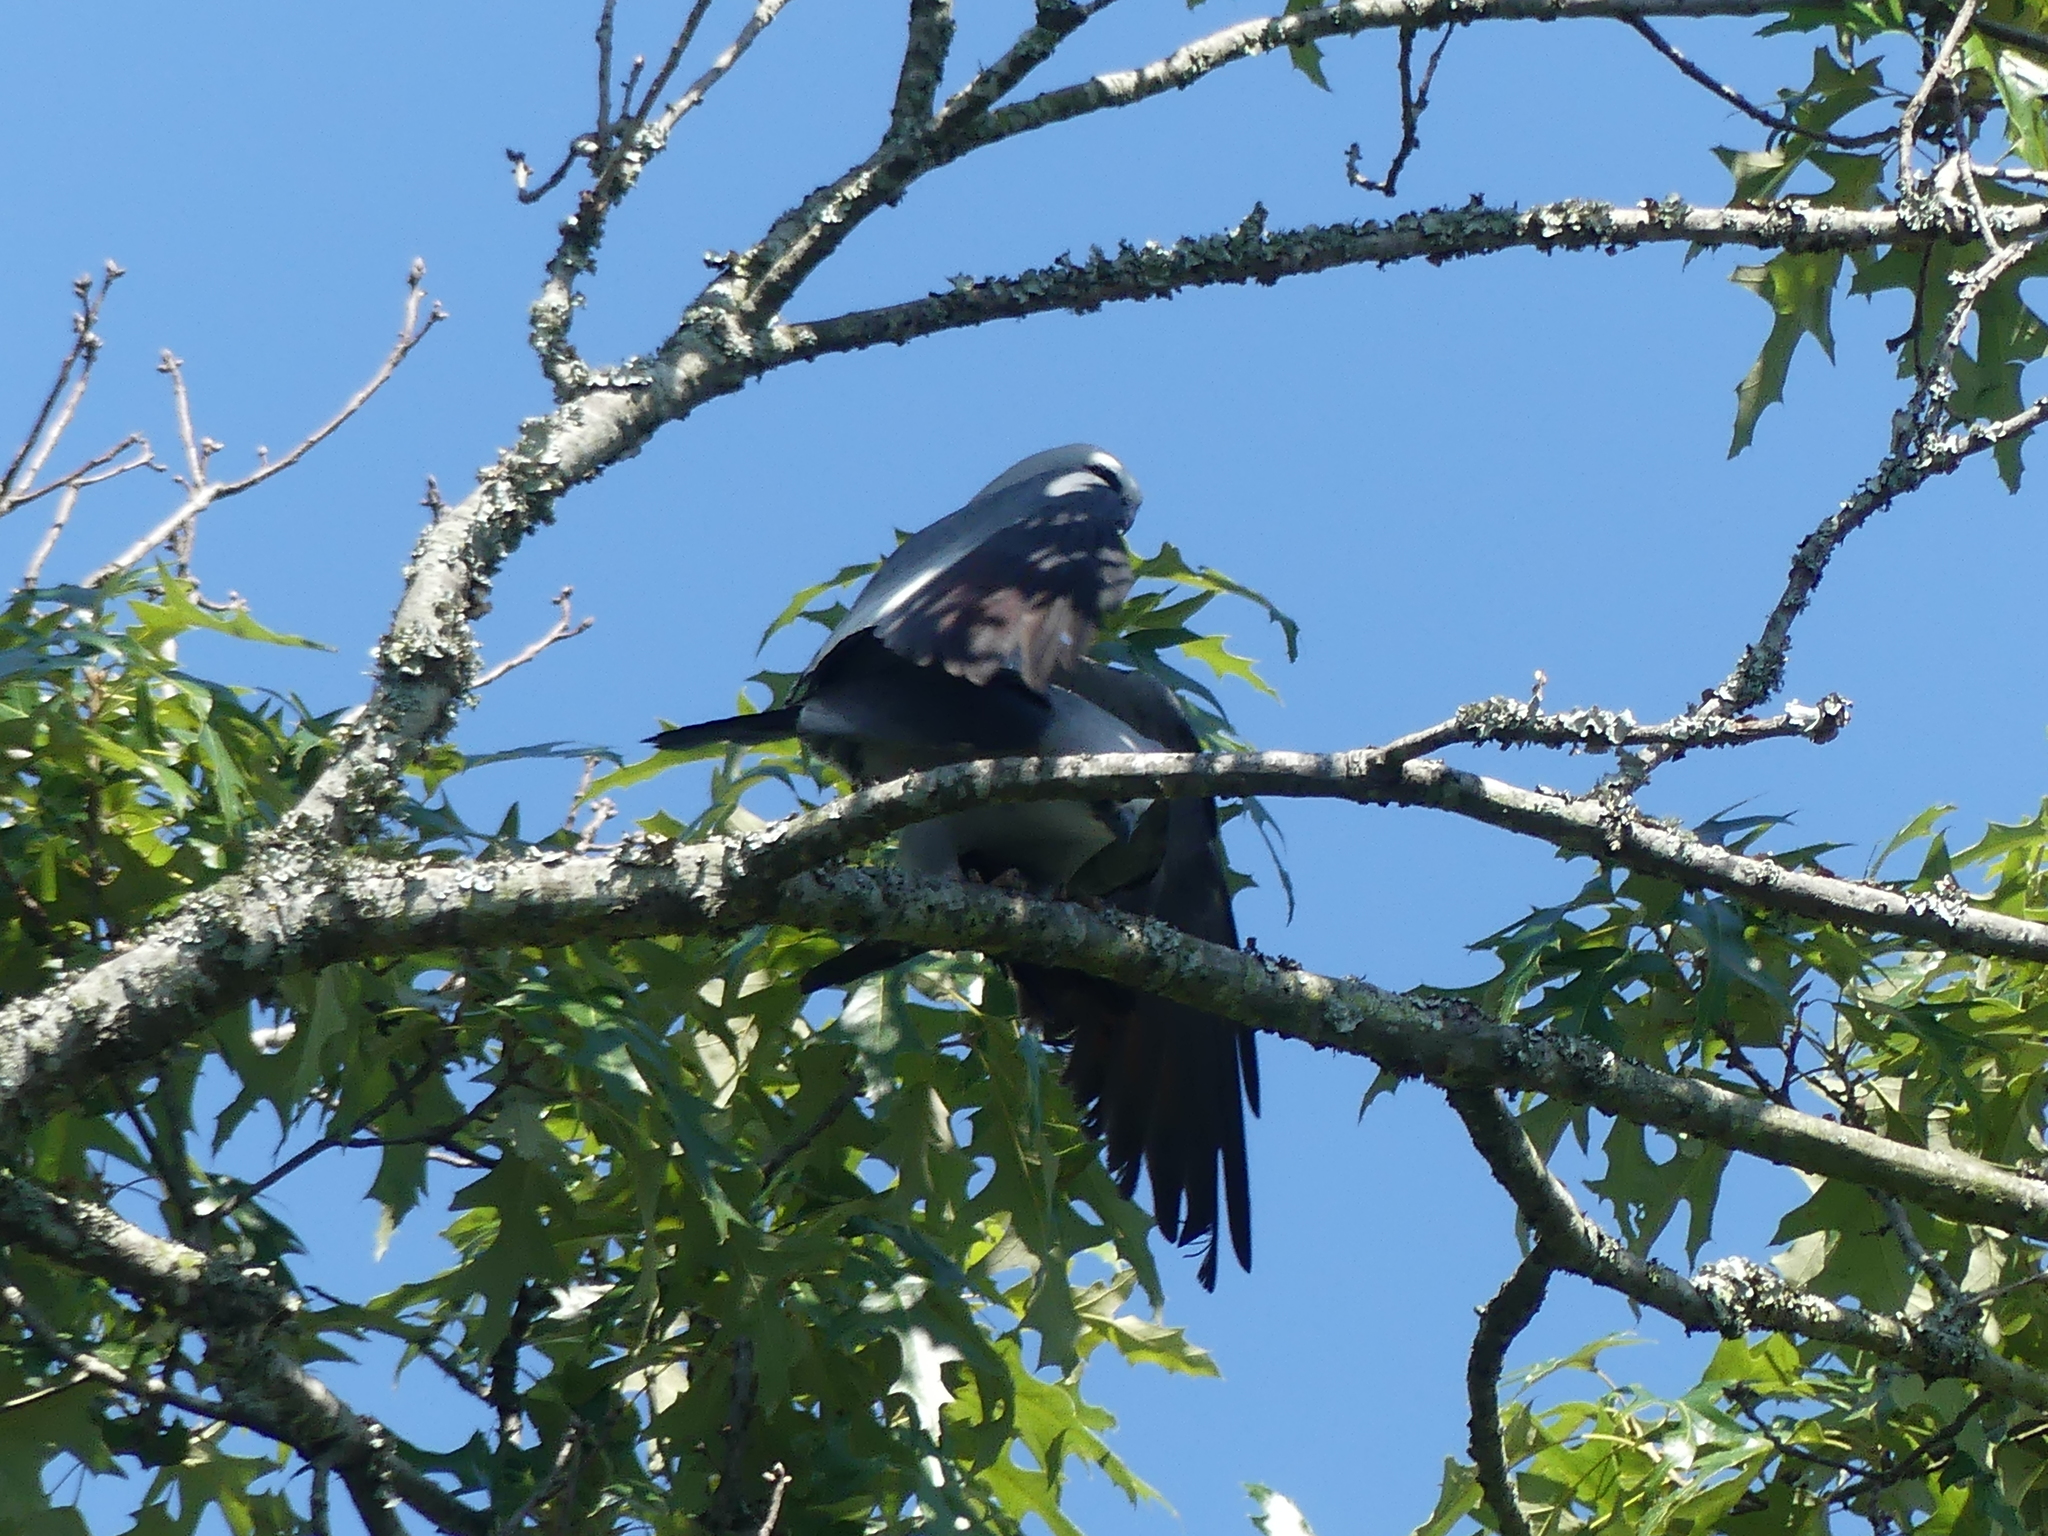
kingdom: Animalia
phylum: Chordata
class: Aves
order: Accipitriformes
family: Accipitridae
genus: Ictinia
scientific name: Ictinia mississippiensis
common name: Mississippi kite
